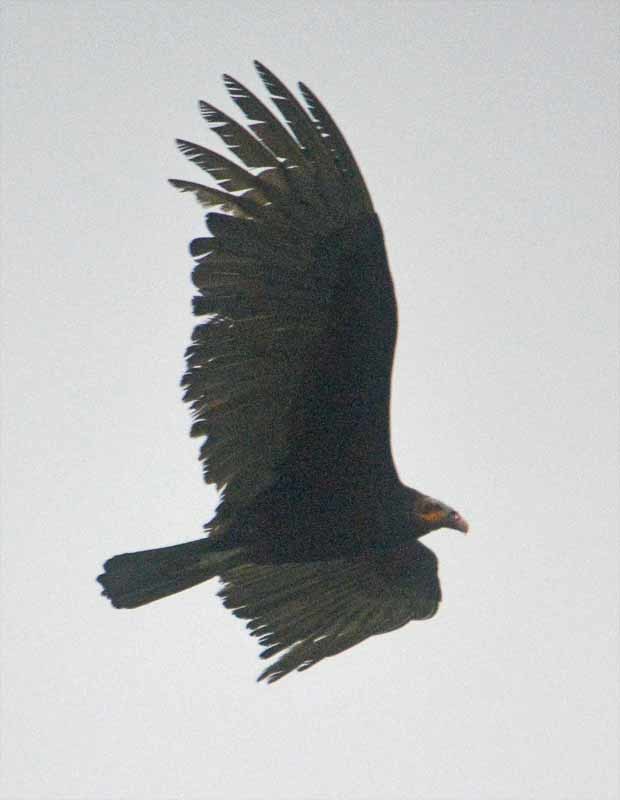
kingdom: Animalia
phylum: Chordata
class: Aves
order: Accipitriformes
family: Cathartidae
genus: Cathartes
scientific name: Cathartes burrovianus
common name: Lesser yellow-headed vulture
